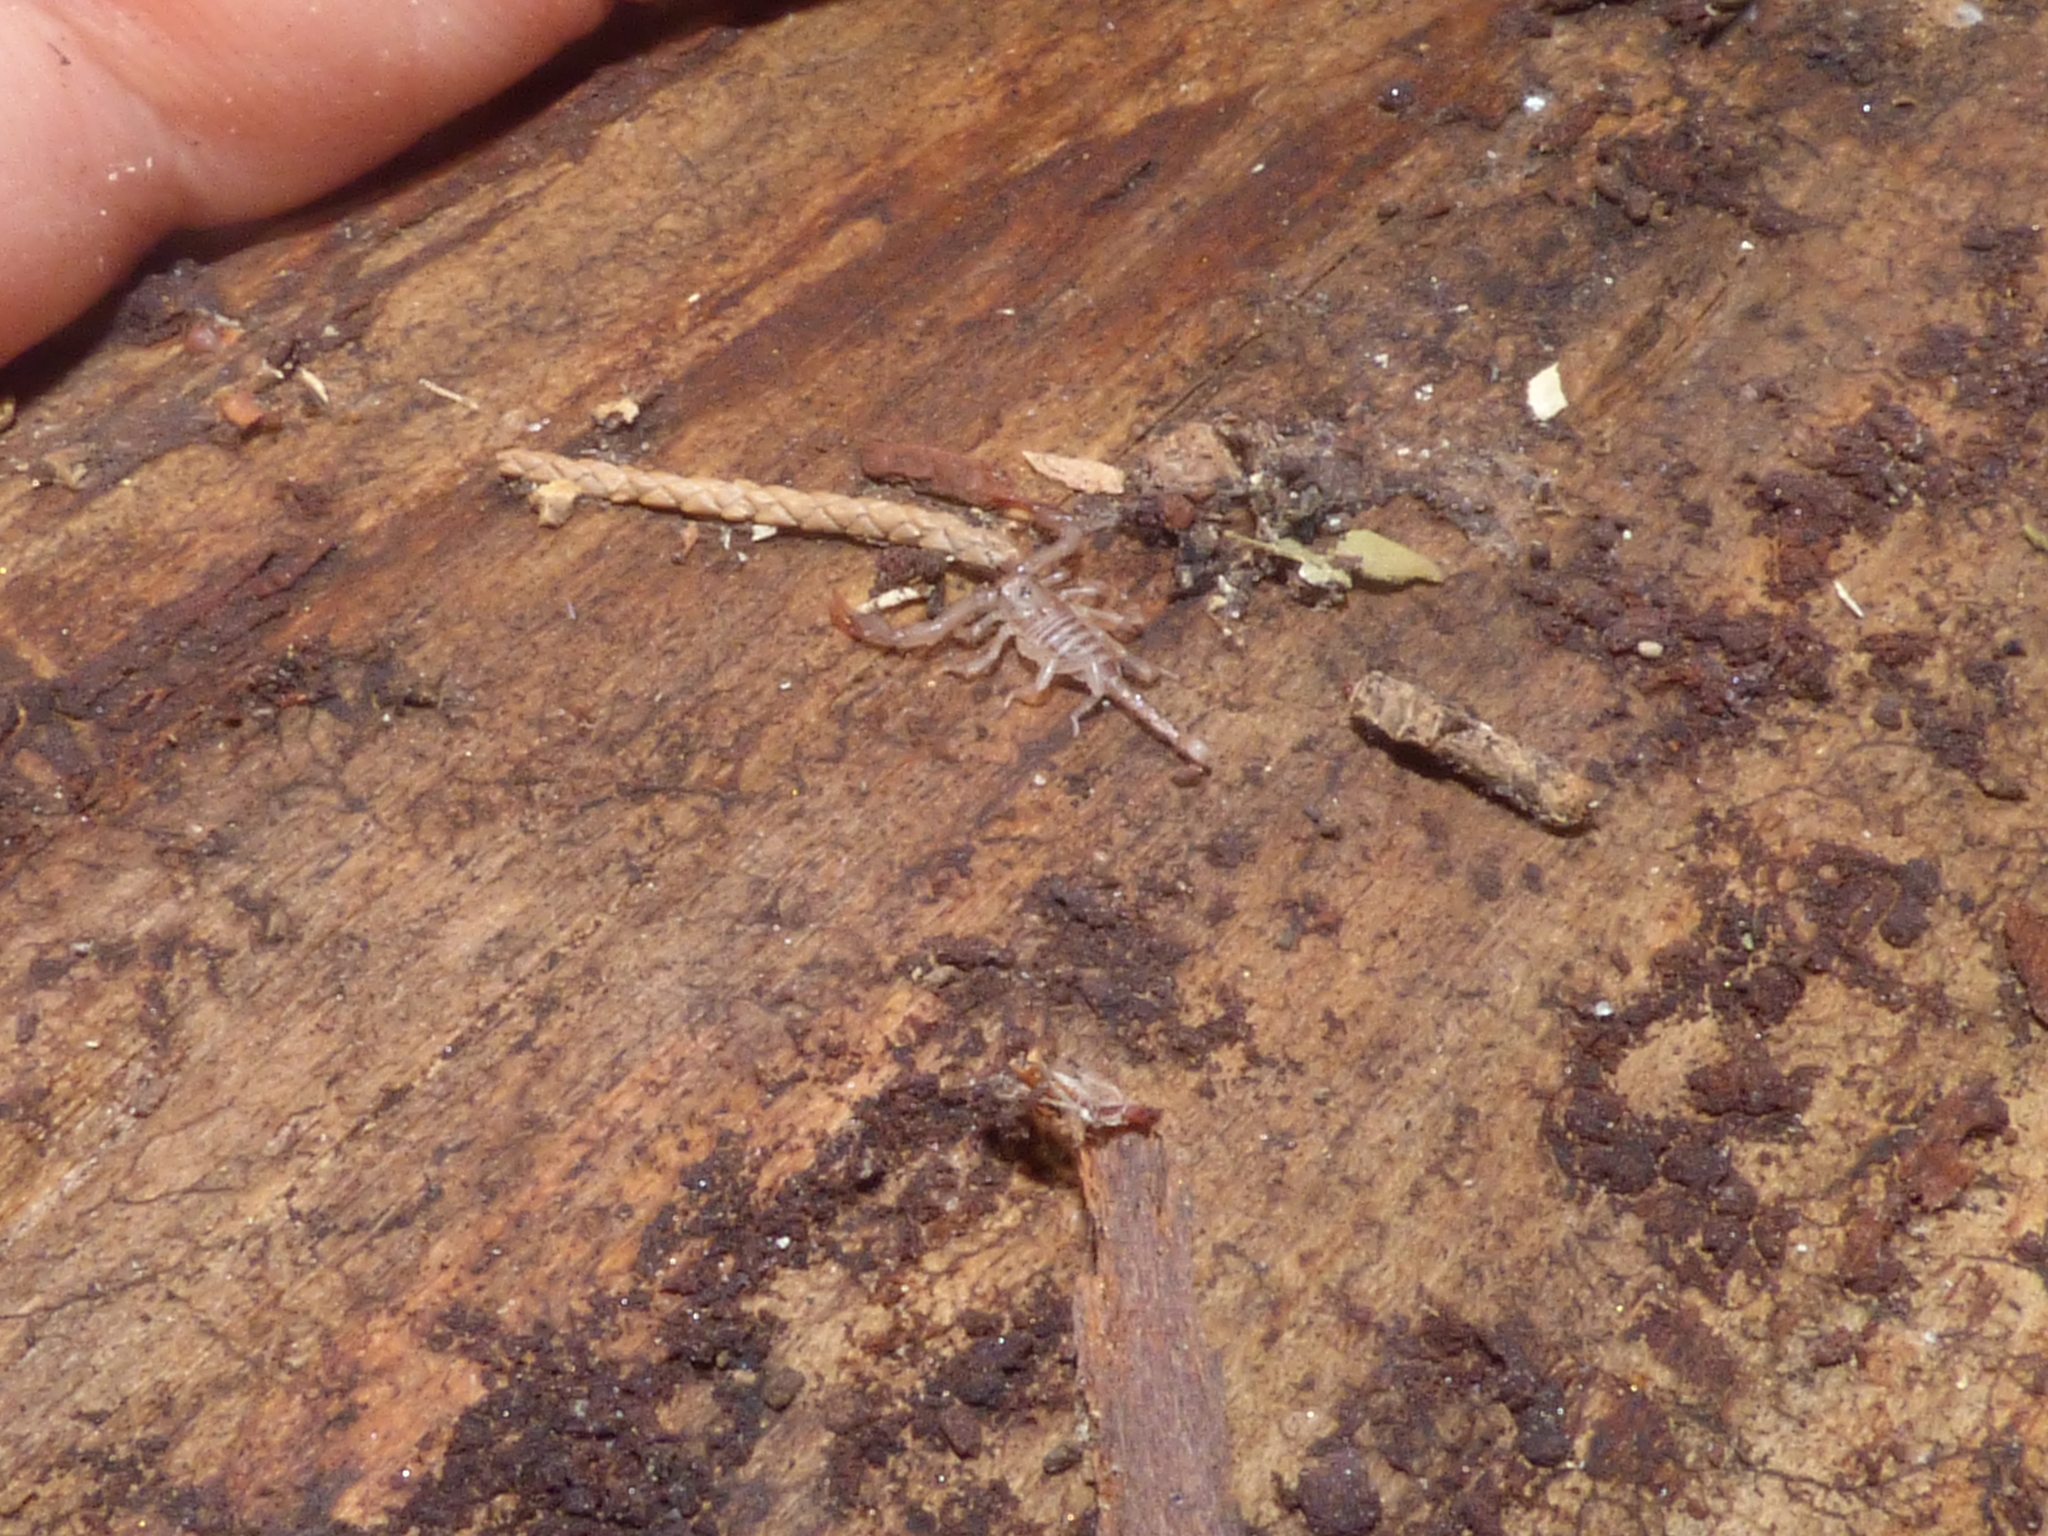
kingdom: Animalia
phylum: Arthropoda
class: Arachnida
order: Scorpiones
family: Euscorpiidae
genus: Euscorpius
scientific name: Euscorpius hadzii
